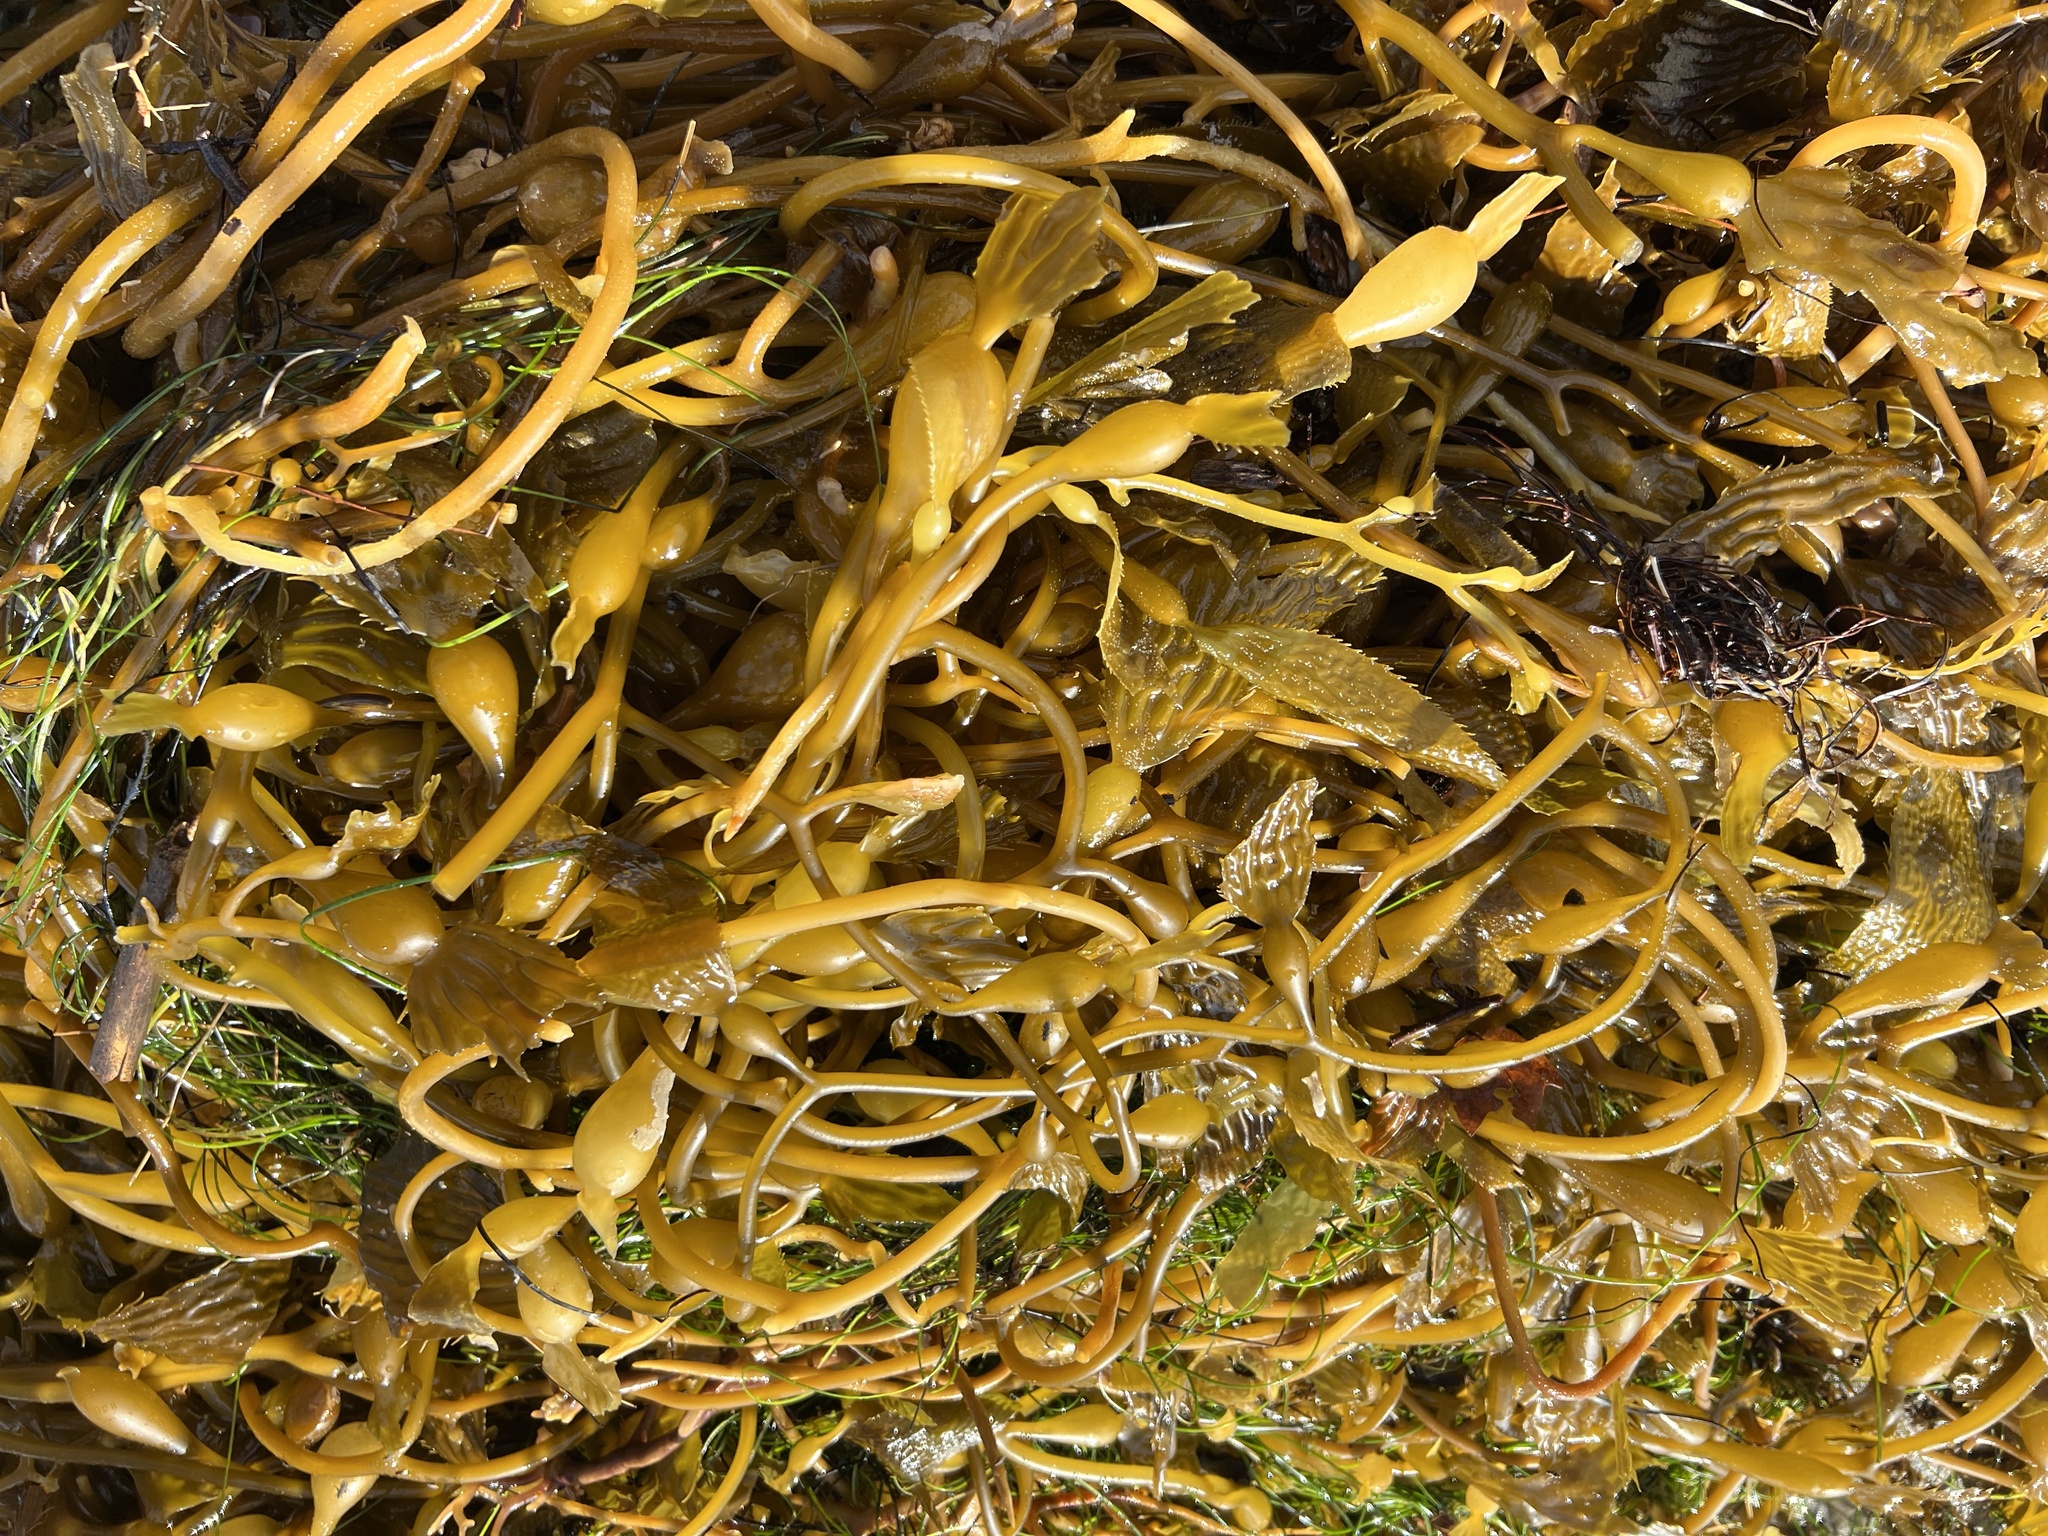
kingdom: Chromista
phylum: Ochrophyta
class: Phaeophyceae
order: Laminariales
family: Laminariaceae
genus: Macrocystis
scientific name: Macrocystis pyrifera
